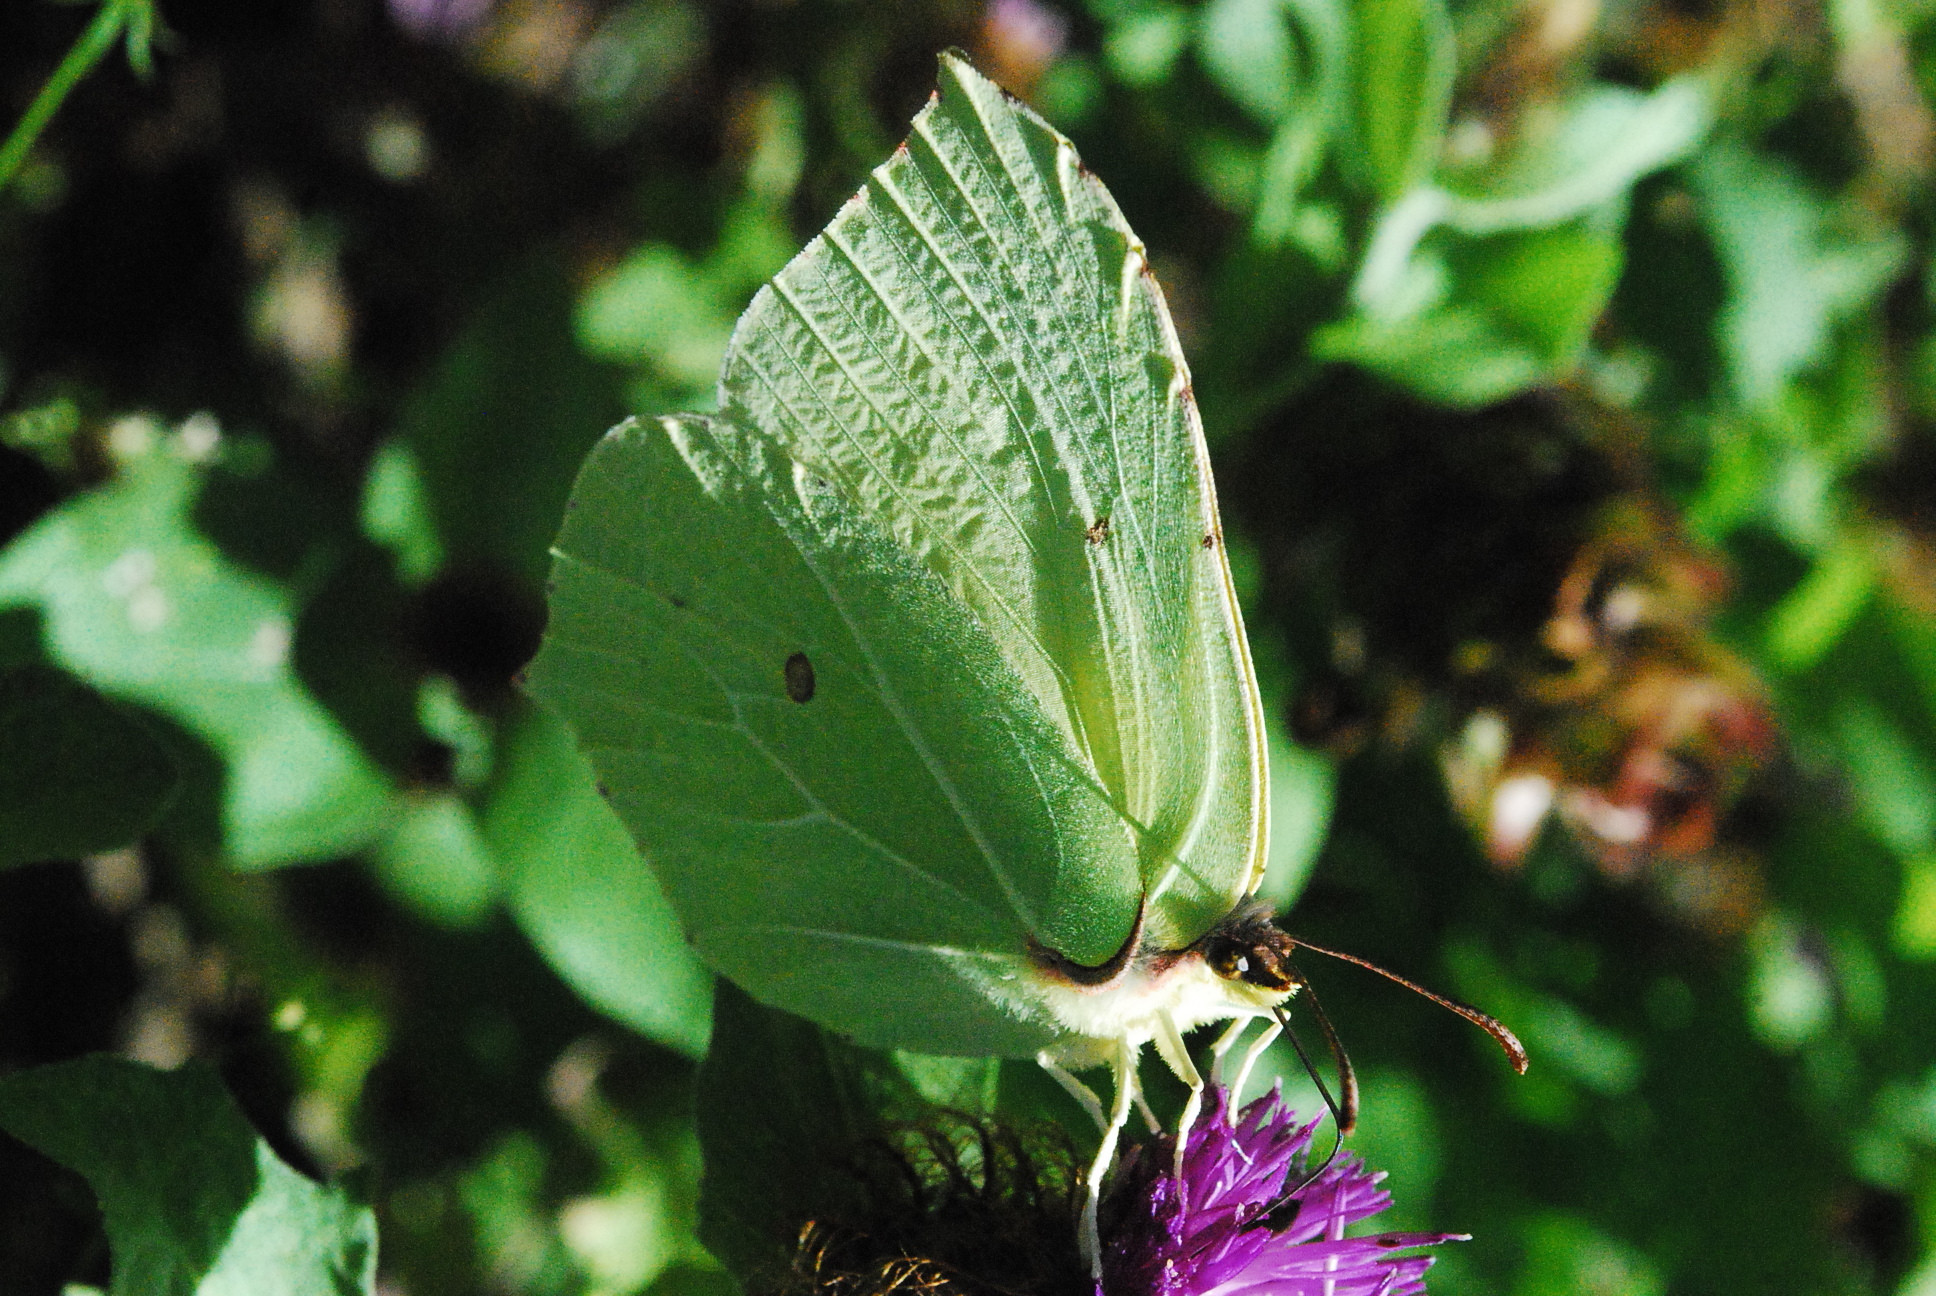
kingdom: Animalia
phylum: Arthropoda
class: Insecta
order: Lepidoptera
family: Pieridae
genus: Gonepteryx
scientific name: Gonepteryx rhamni
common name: Brimstone
